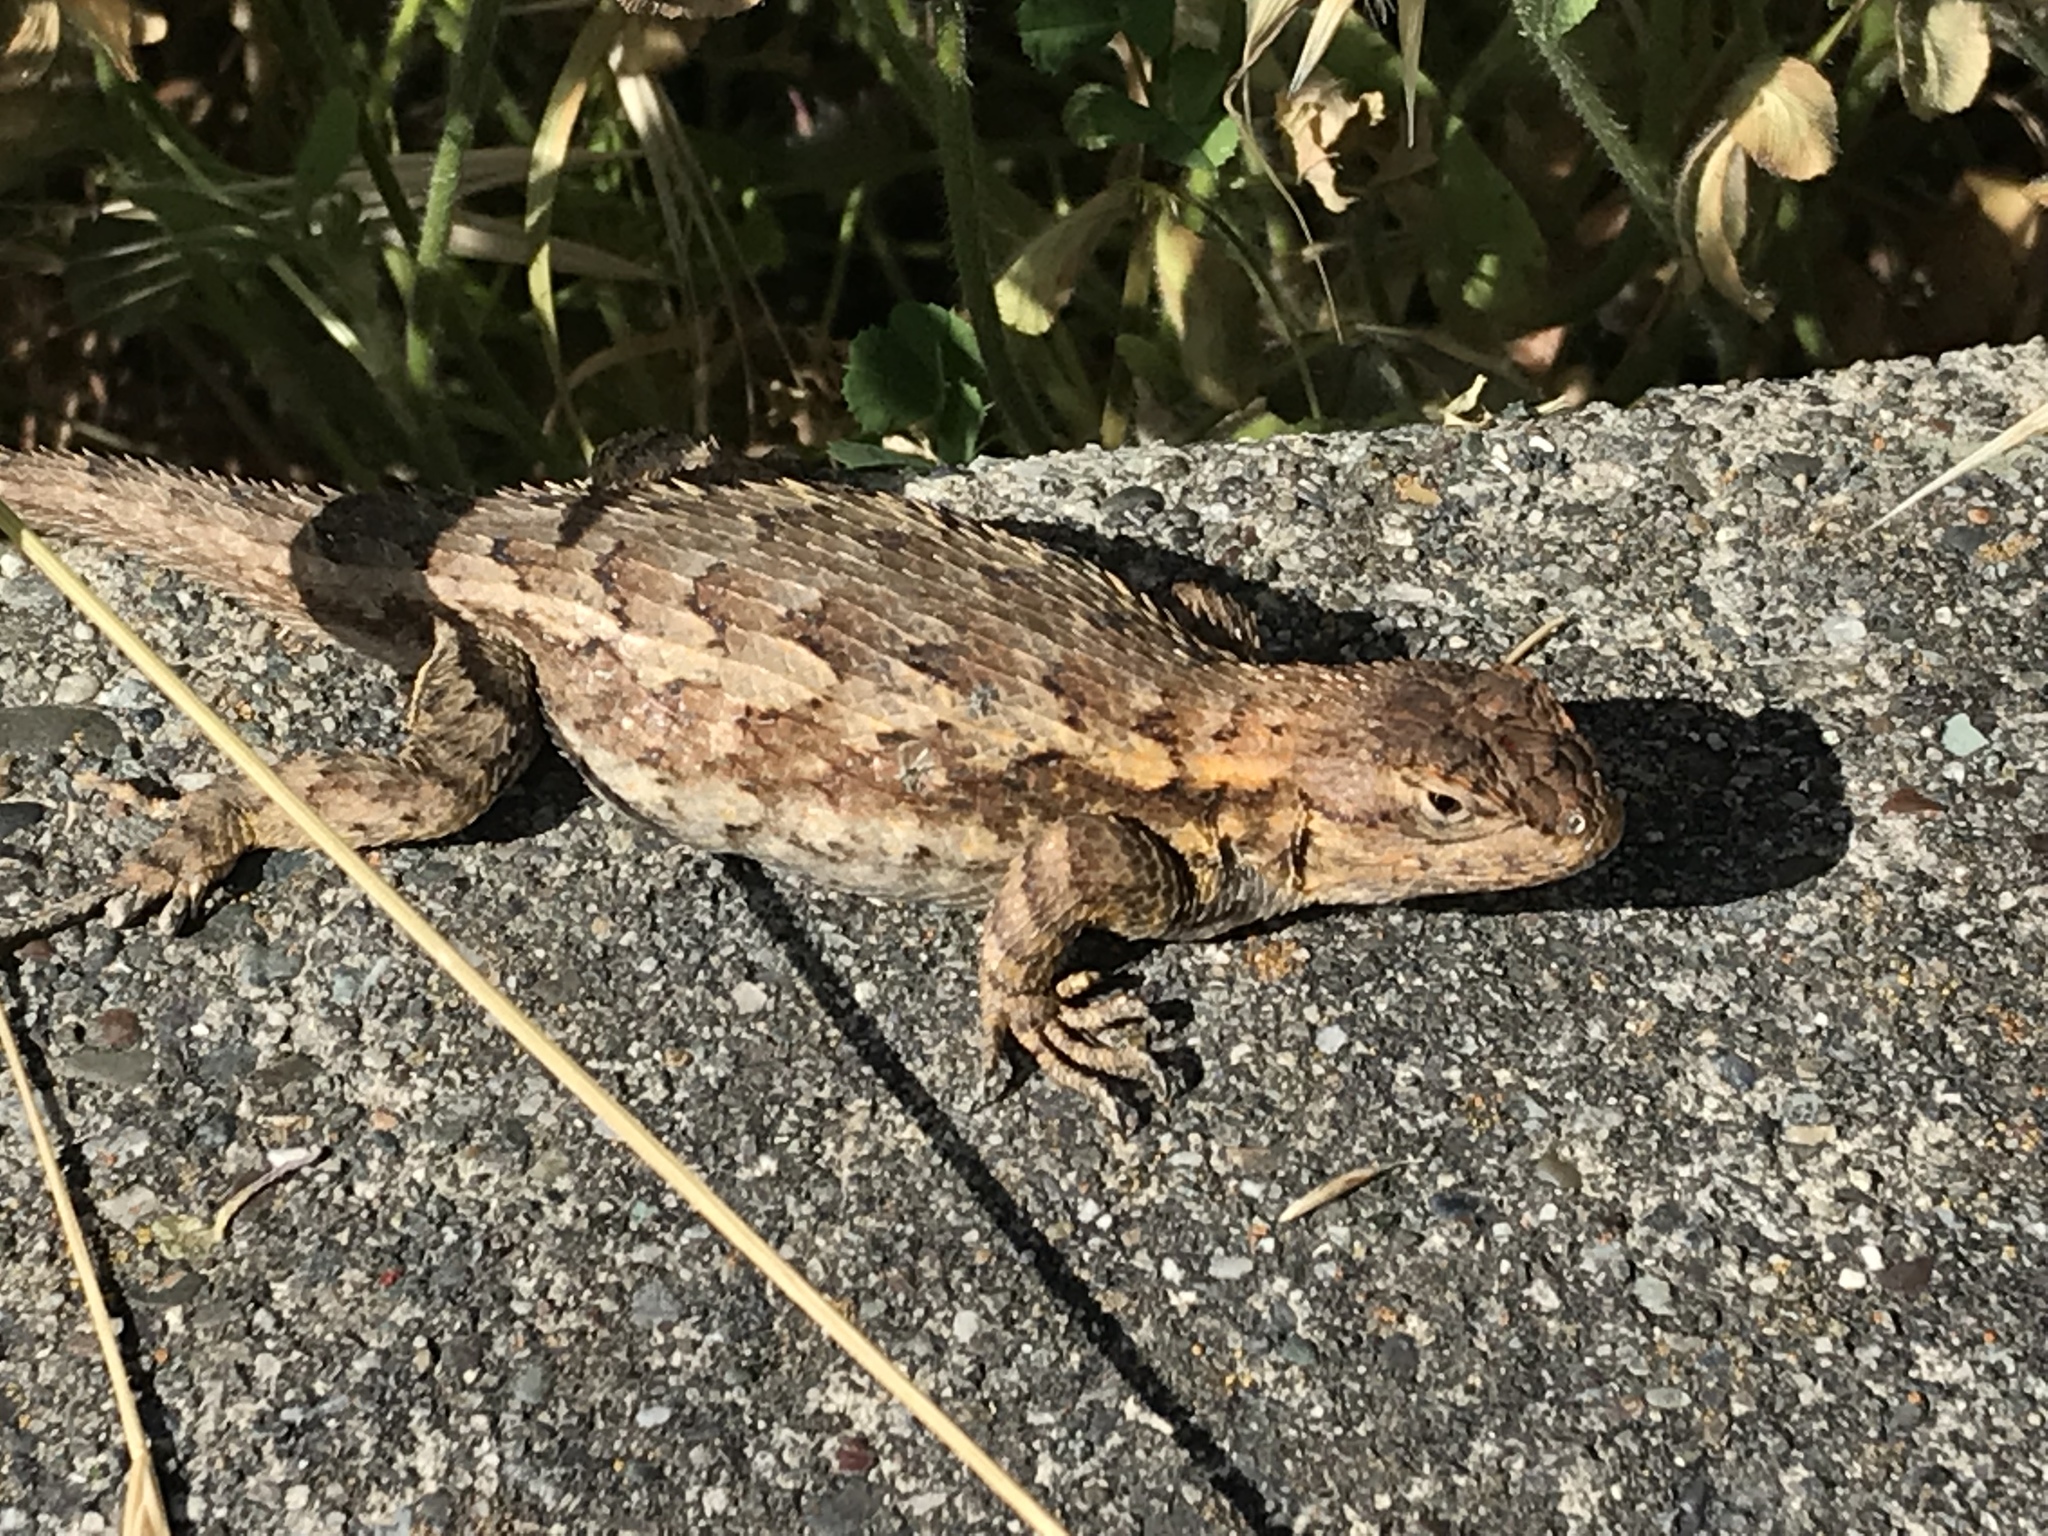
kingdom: Animalia
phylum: Chordata
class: Squamata
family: Phrynosomatidae
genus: Sceloporus
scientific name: Sceloporus occidentalis
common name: Western fence lizard
